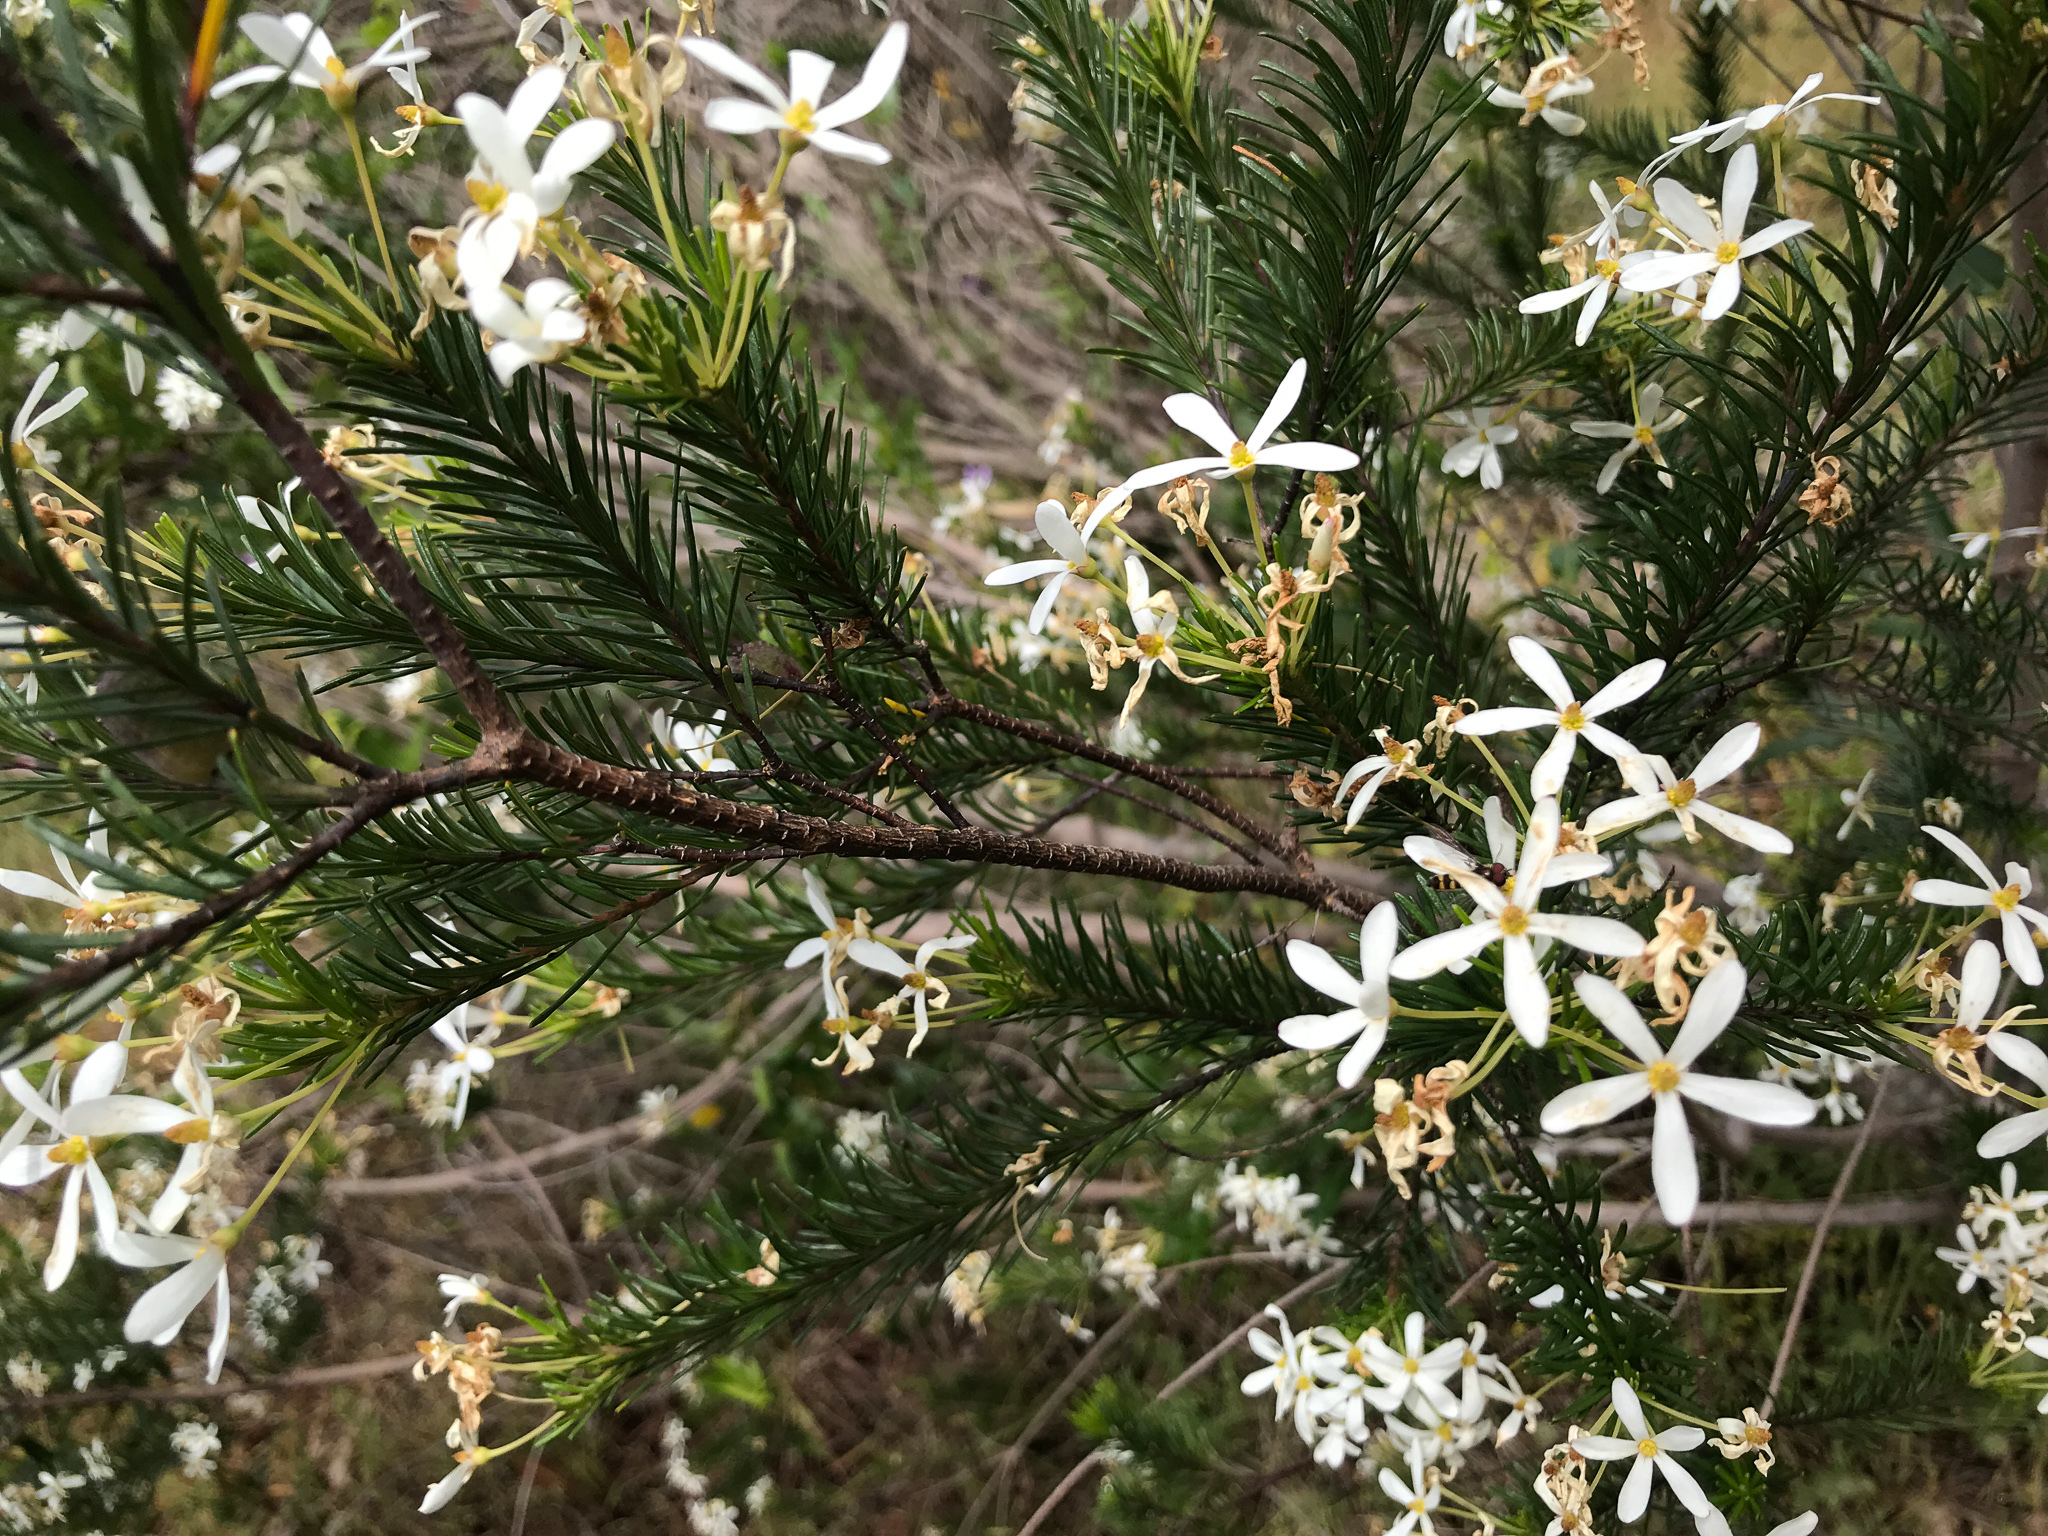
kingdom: Plantae
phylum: Tracheophyta
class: Magnoliopsida
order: Malpighiales
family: Euphorbiaceae
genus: Ricinocarpos
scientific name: Ricinocarpos glaucus
